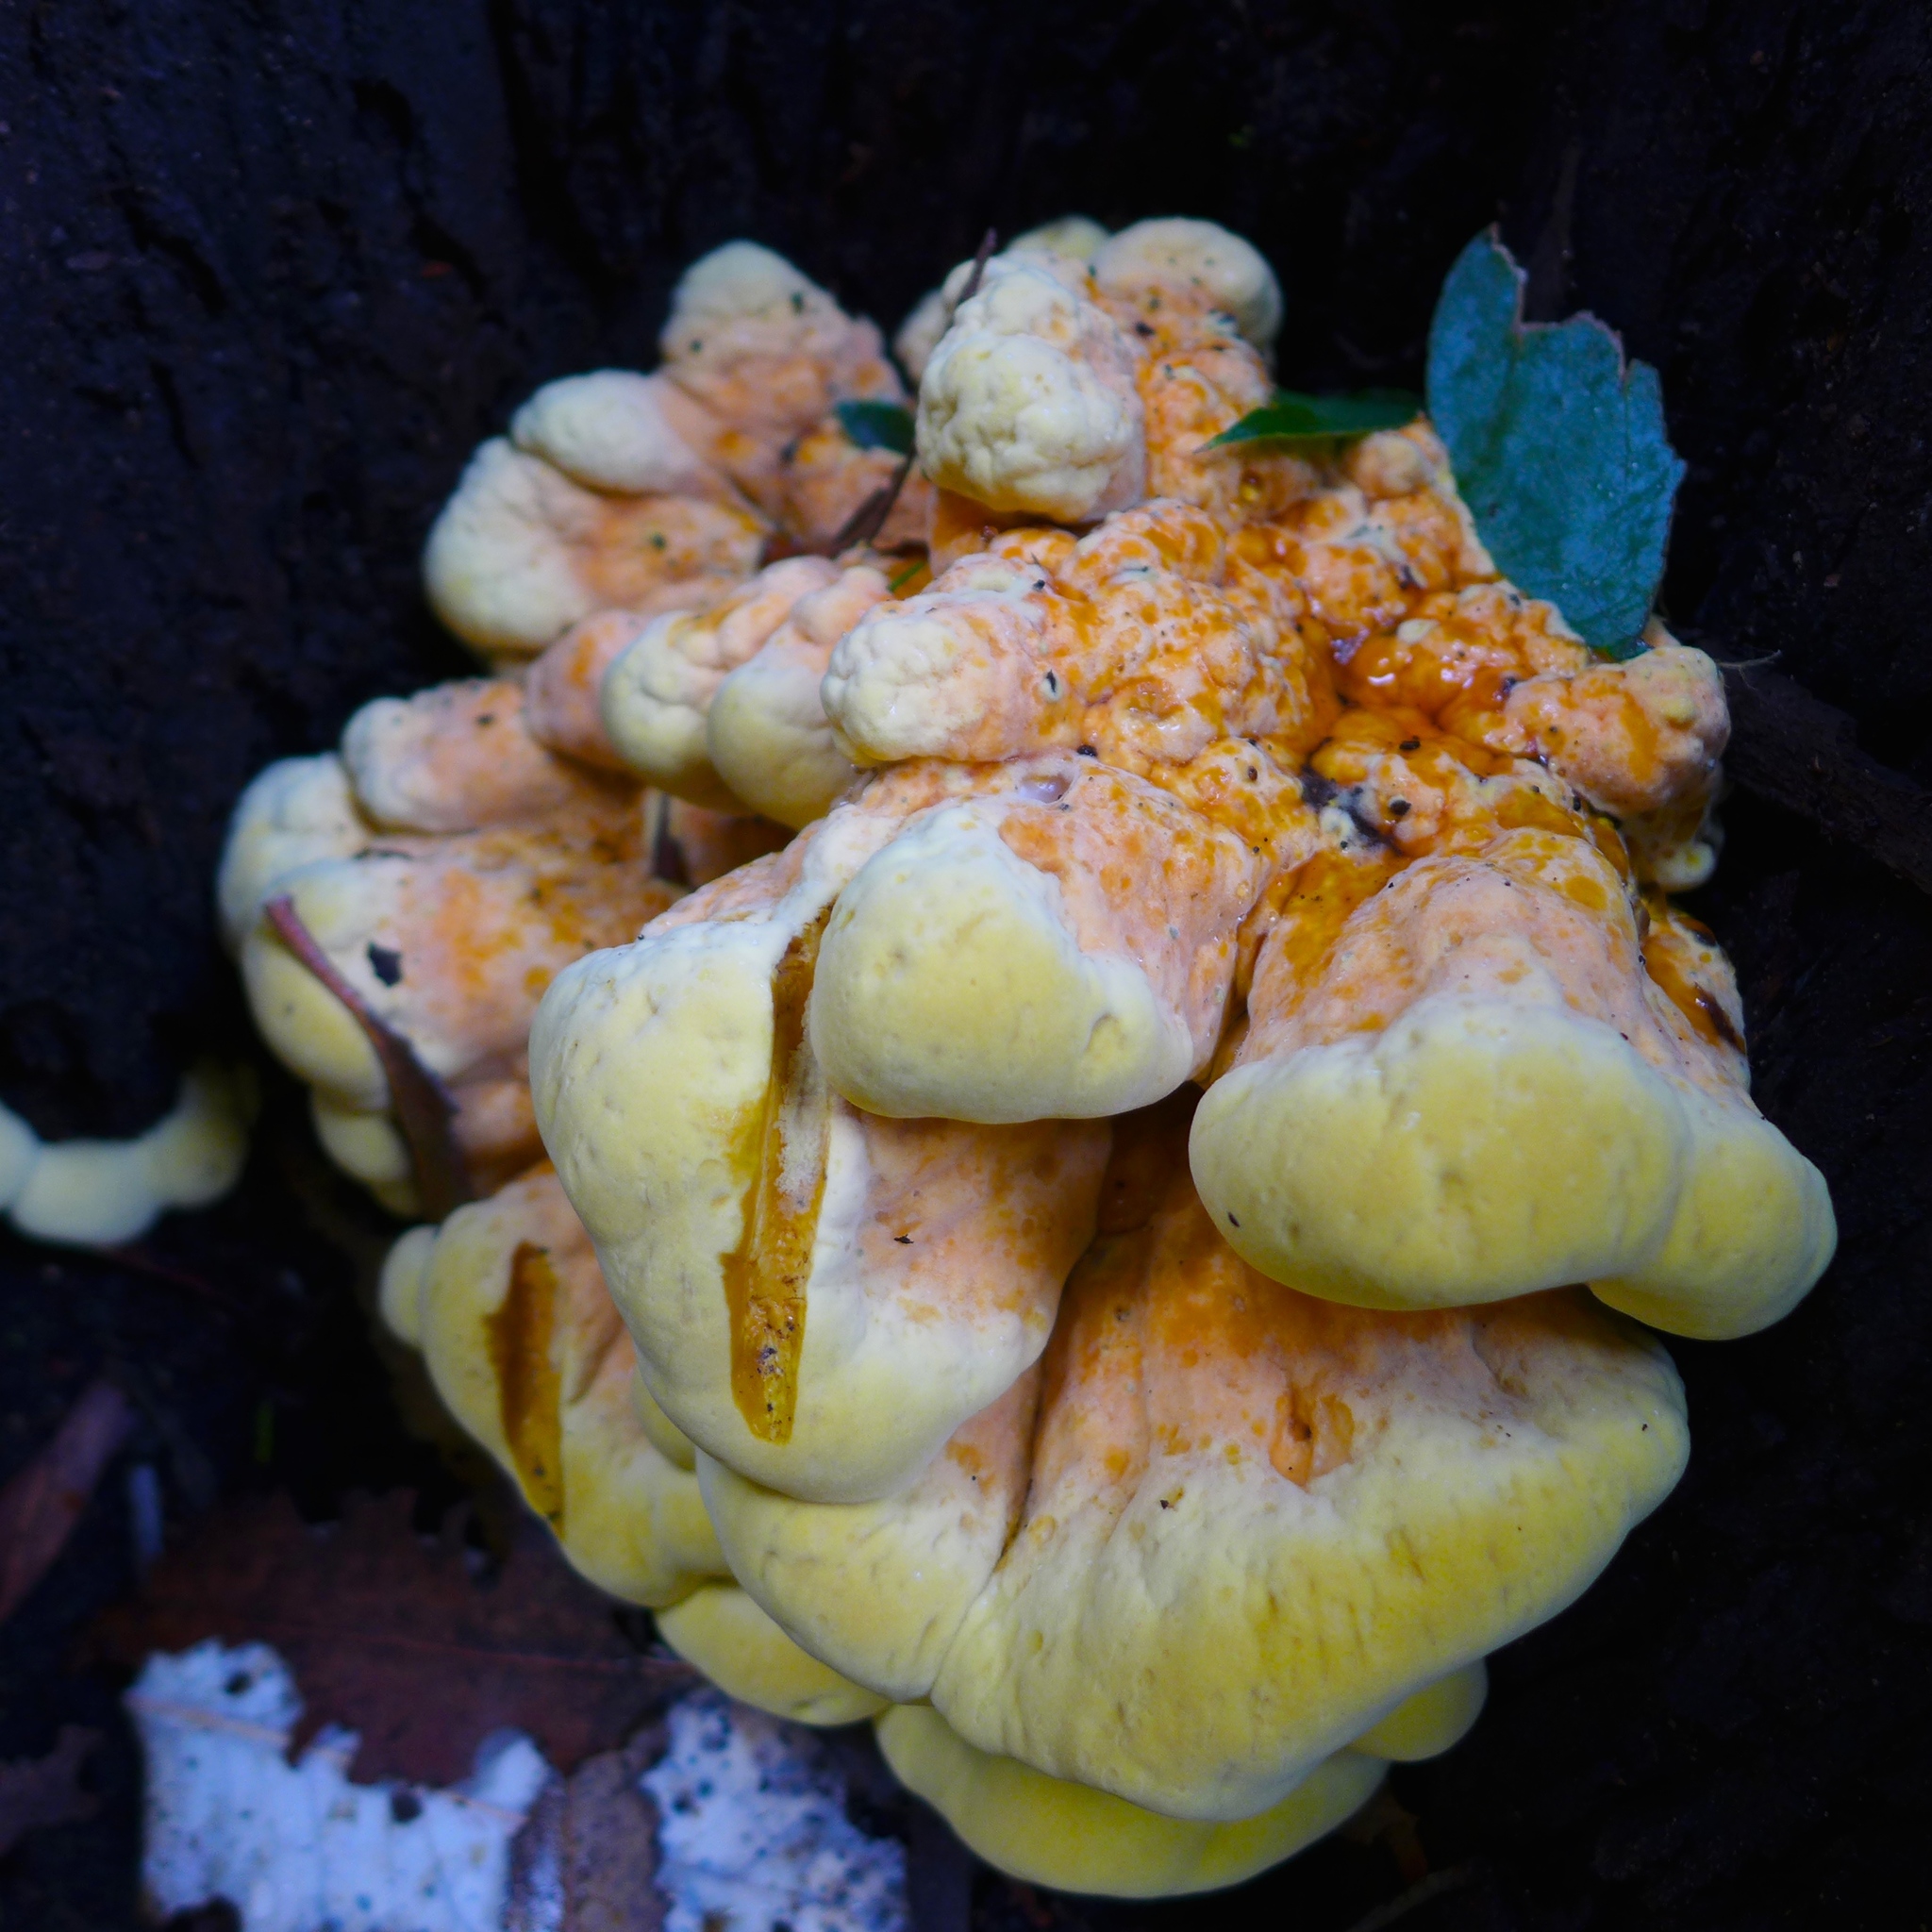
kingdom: Fungi
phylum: Basidiomycota
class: Agaricomycetes
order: Polyporales
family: Laetiporaceae
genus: Laetiporus
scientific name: Laetiporus gilbertsonii
